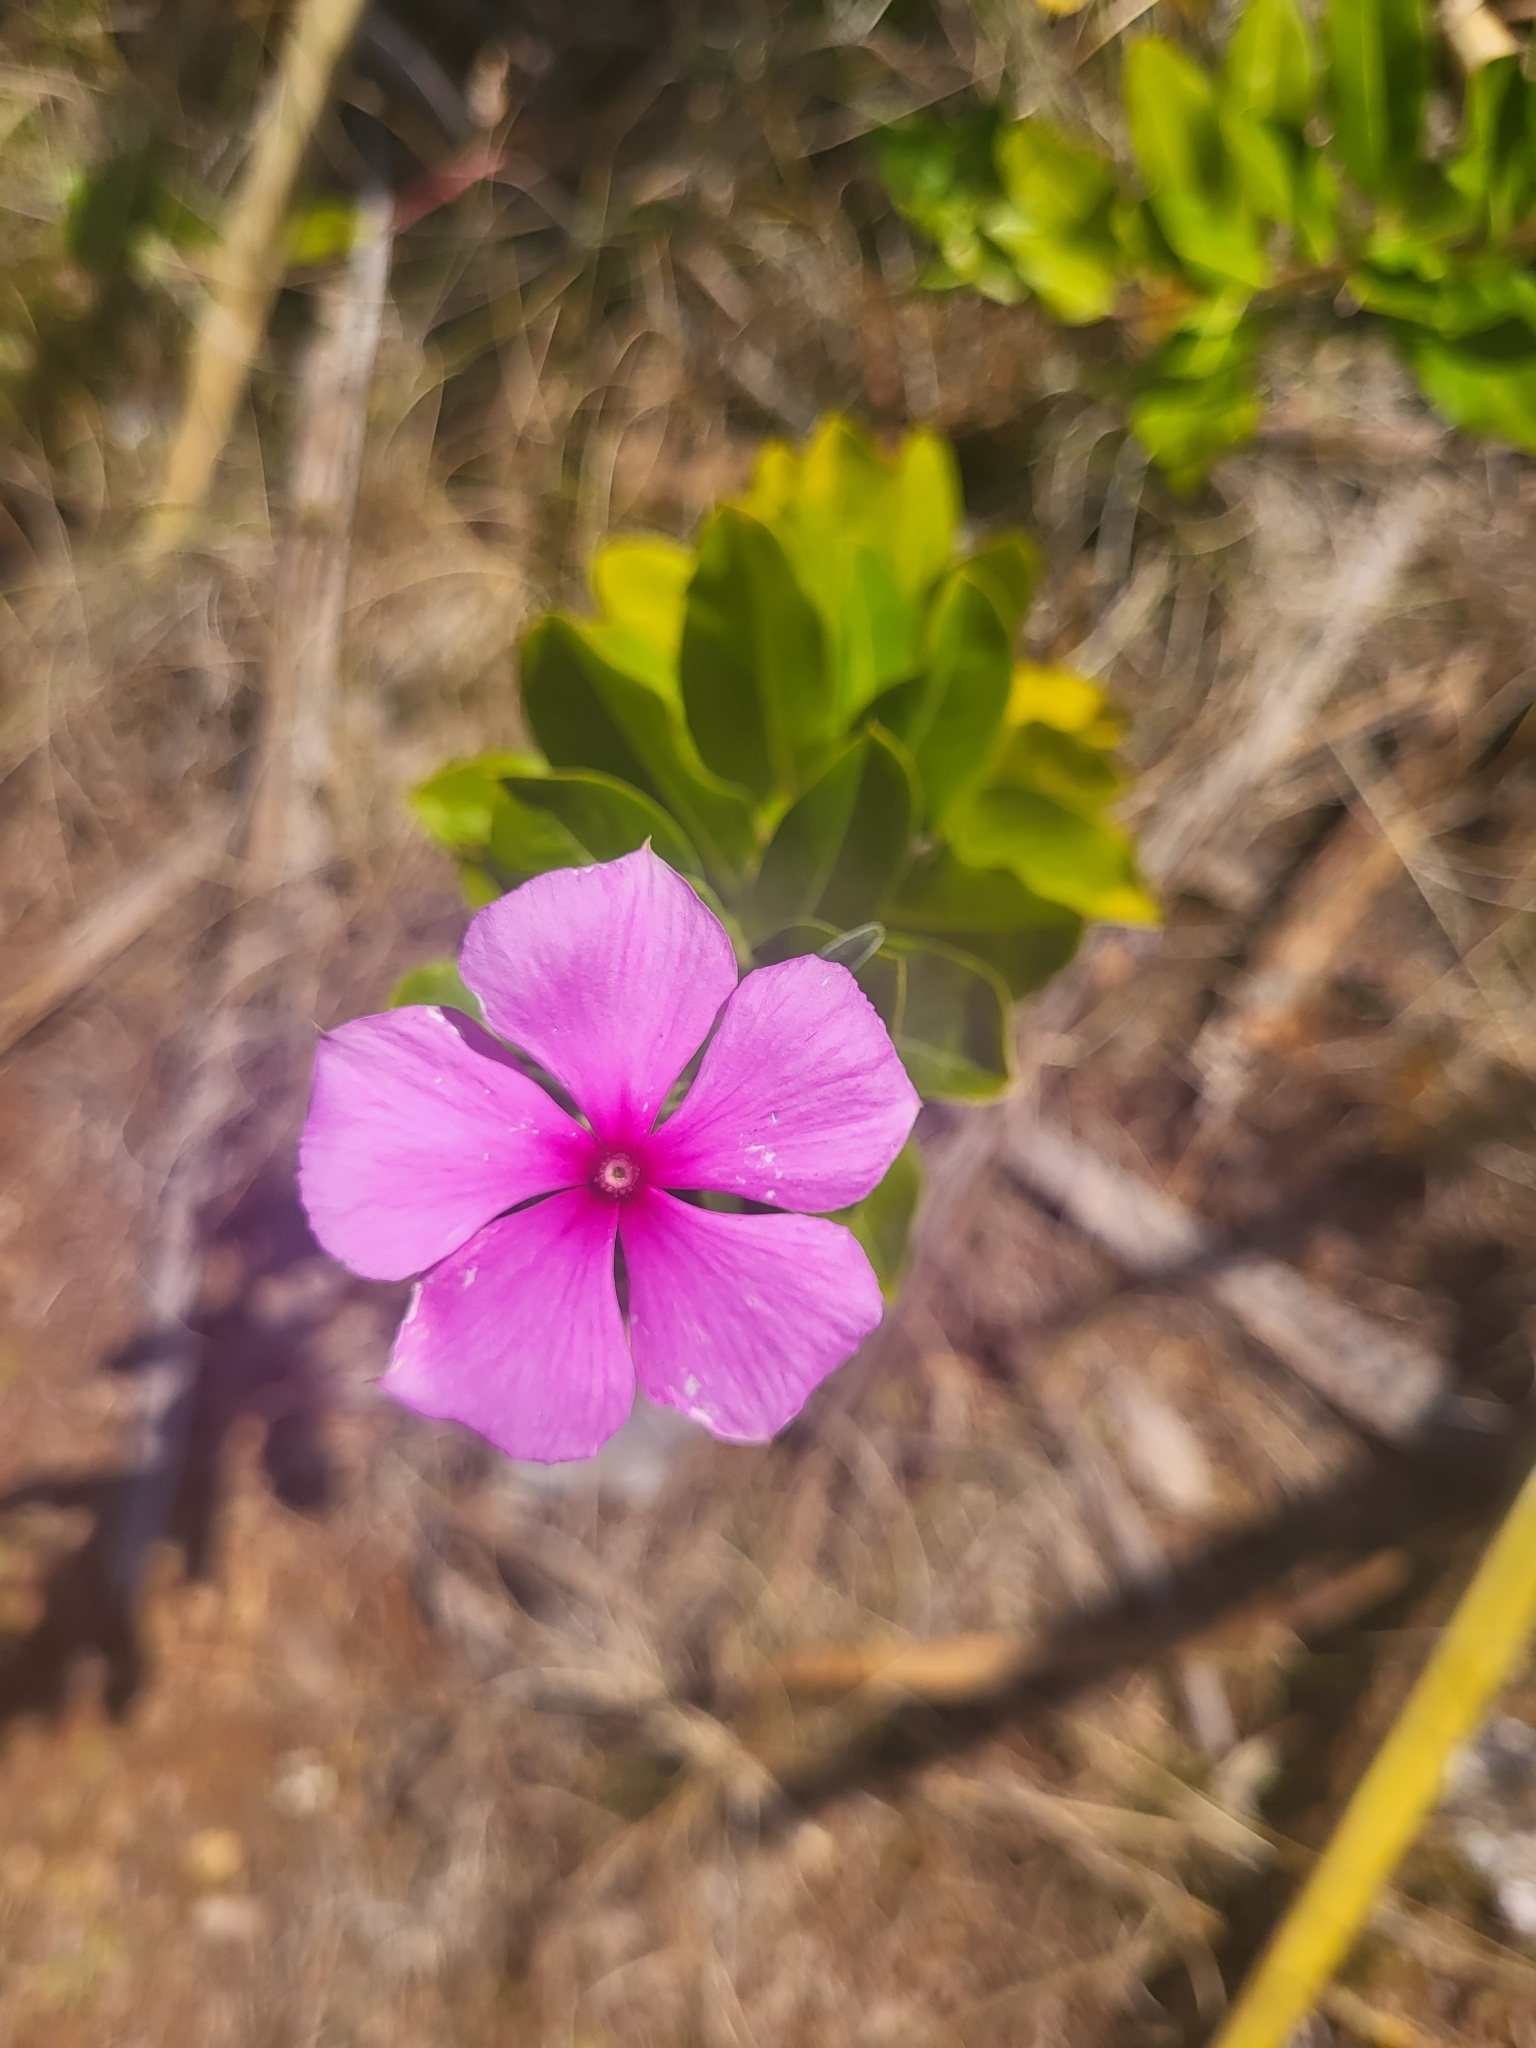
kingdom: Plantae
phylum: Tracheophyta
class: Magnoliopsida
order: Gentianales
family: Apocynaceae
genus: Catharanthus
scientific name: Catharanthus roseus
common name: Madagascar periwinkle
